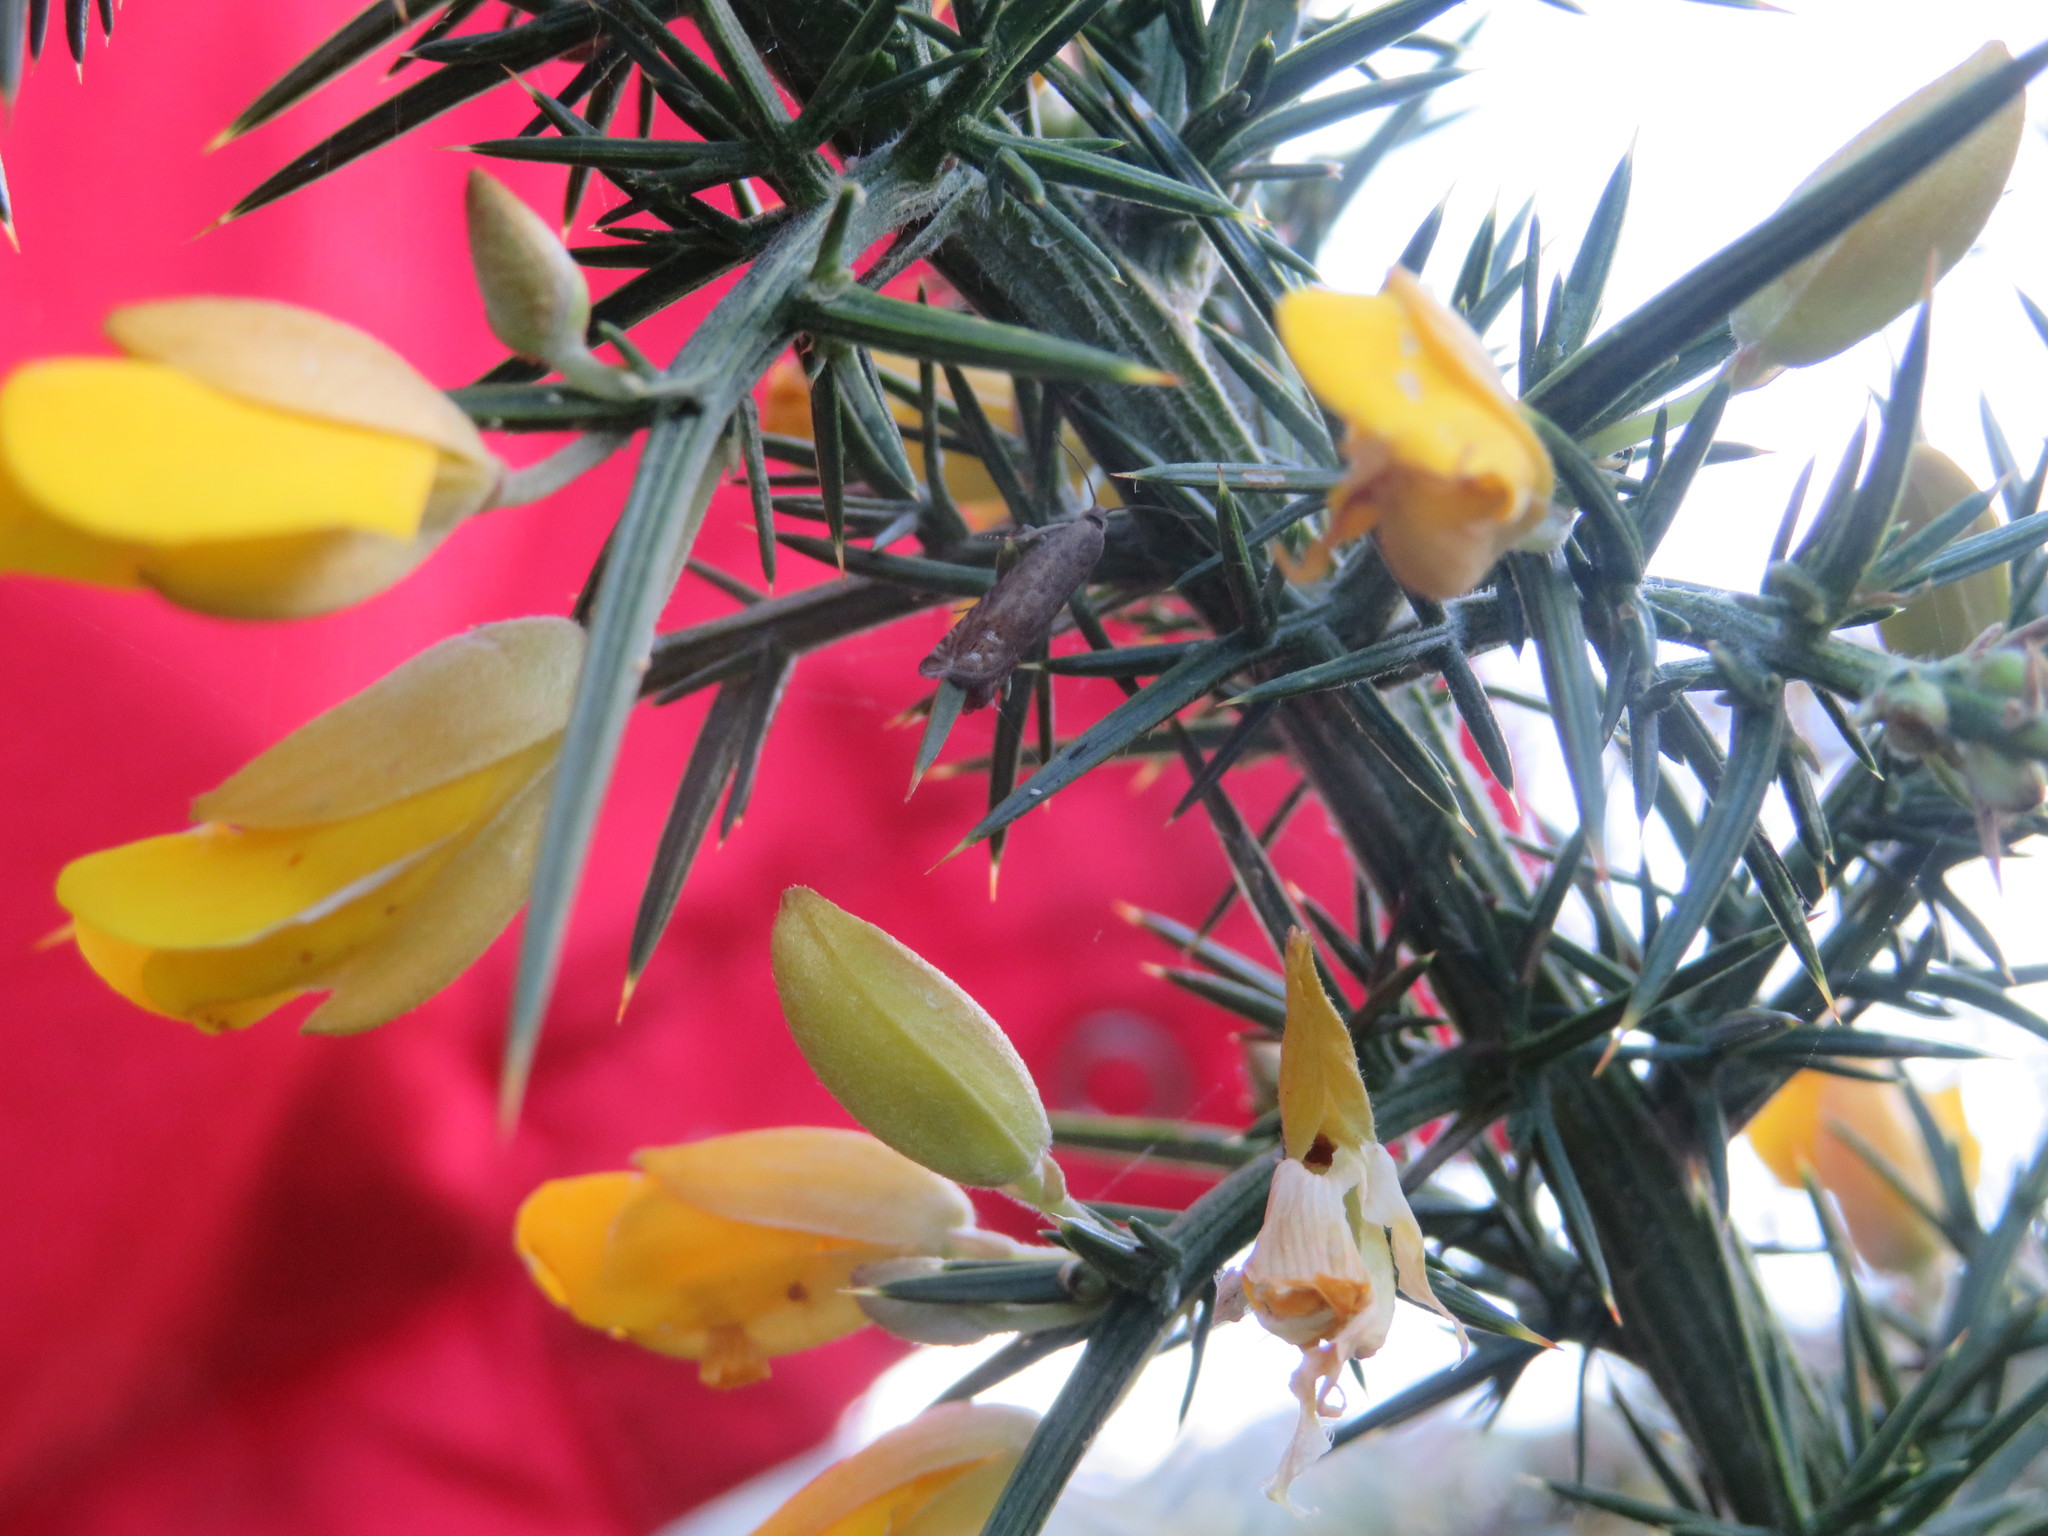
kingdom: Animalia
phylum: Arthropoda
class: Insecta
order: Lepidoptera
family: Tortricidae
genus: Cydia
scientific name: Cydia succedana
